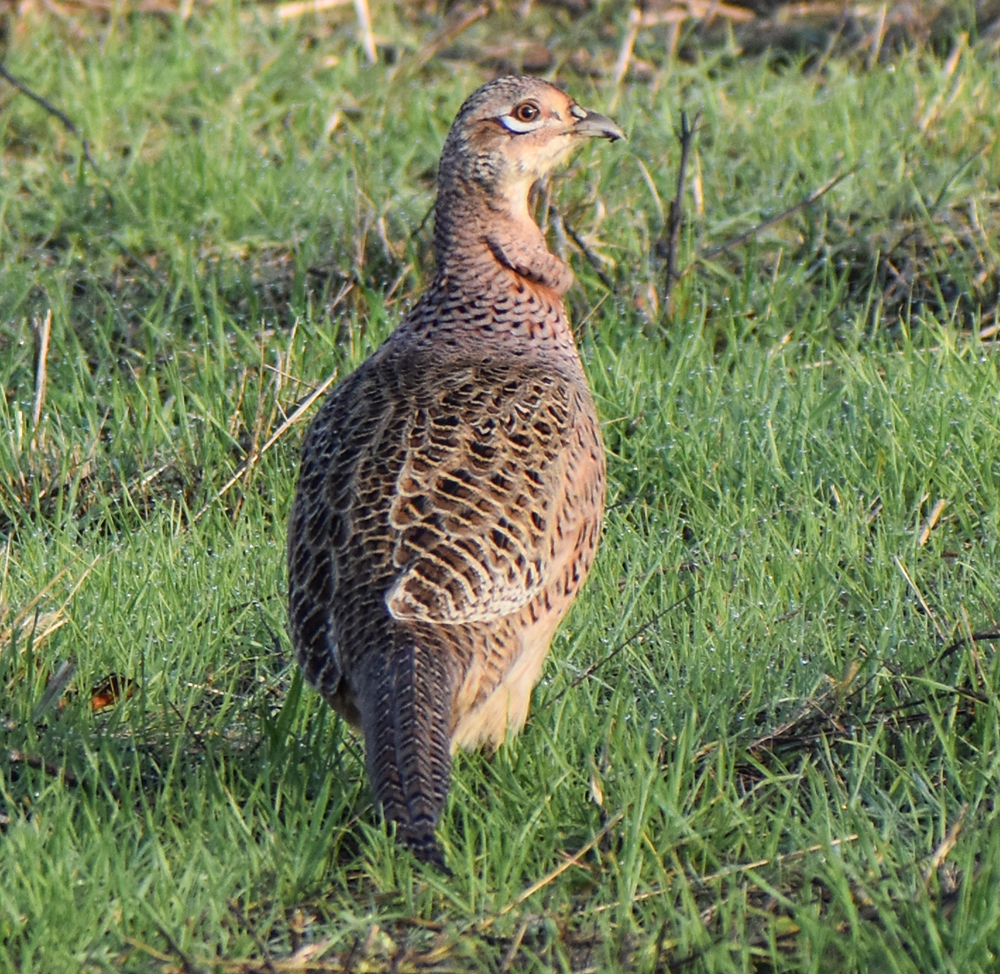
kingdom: Animalia
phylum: Chordata
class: Aves
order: Galliformes
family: Phasianidae
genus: Phasianus
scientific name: Phasianus colchicus
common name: Common pheasant
